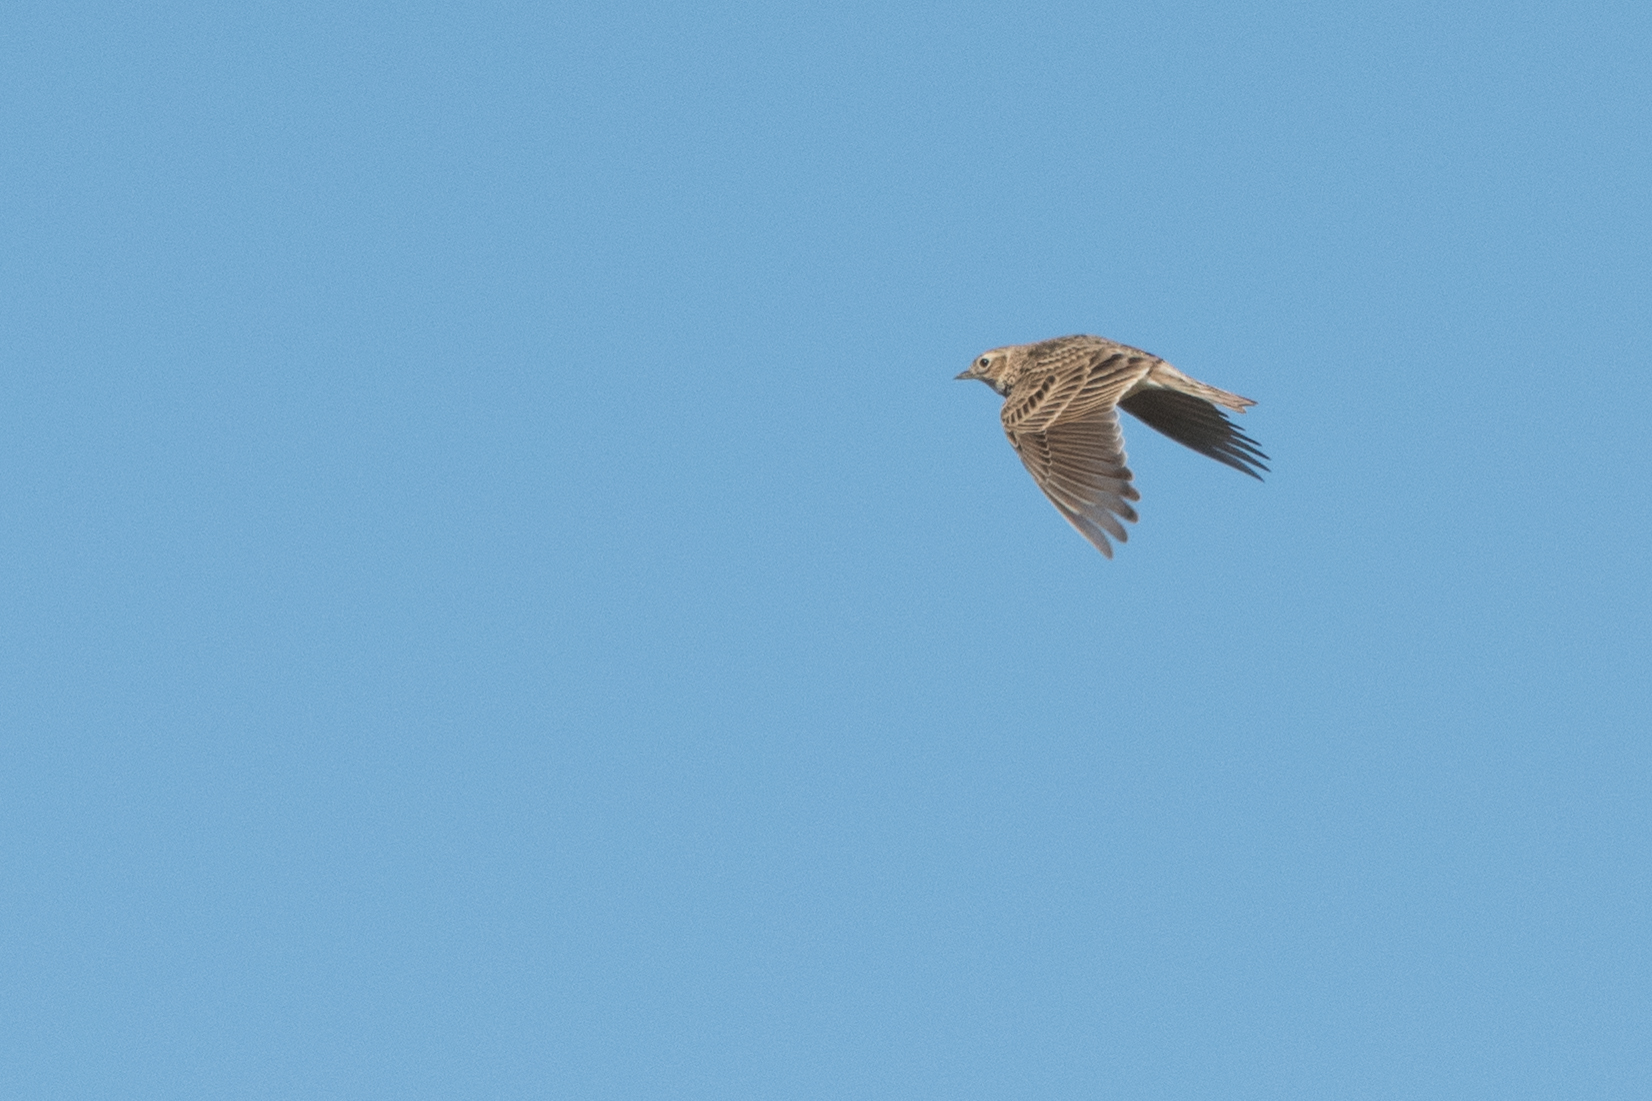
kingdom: Animalia
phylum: Chordata
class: Aves
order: Passeriformes
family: Alaudidae
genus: Alauda
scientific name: Alauda arvensis
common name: Eurasian skylark
